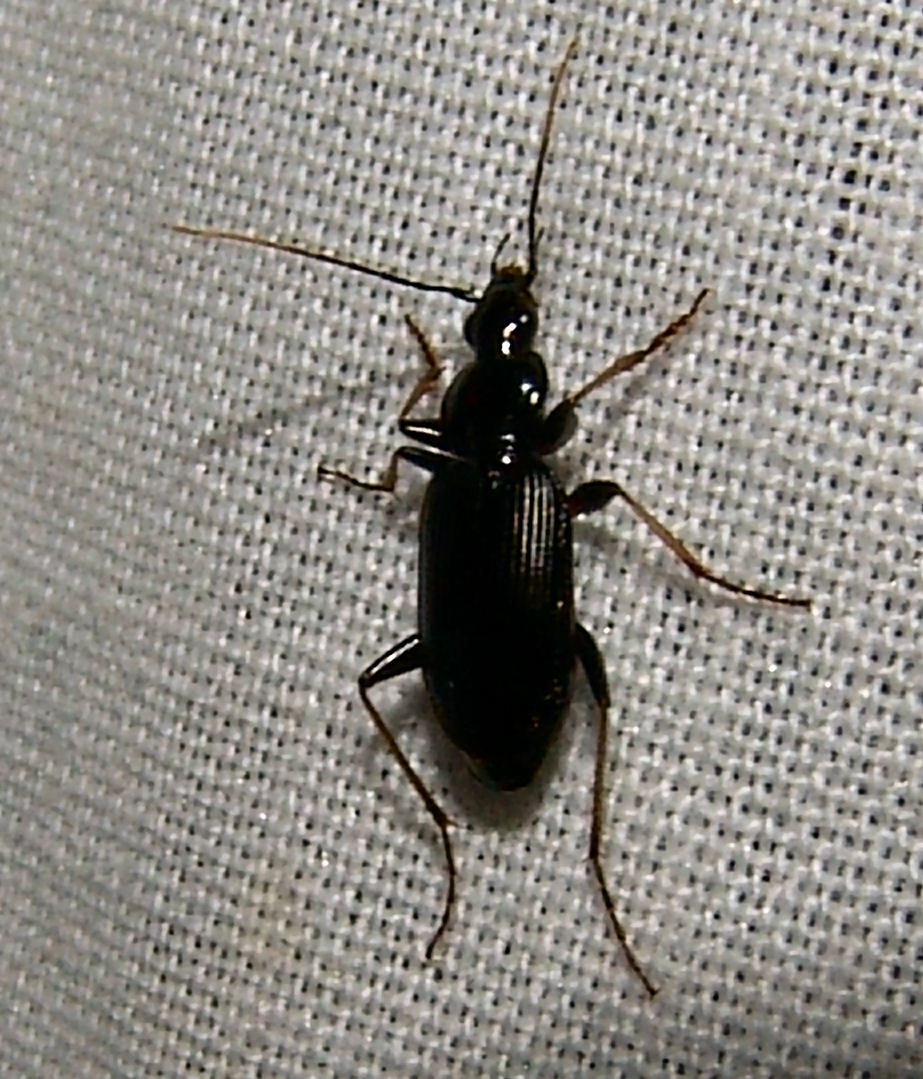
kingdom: Animalia
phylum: Arthropoda
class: Insecta
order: Coleoptera
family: Carabidae
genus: Agonum
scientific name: Agonum albicrus
